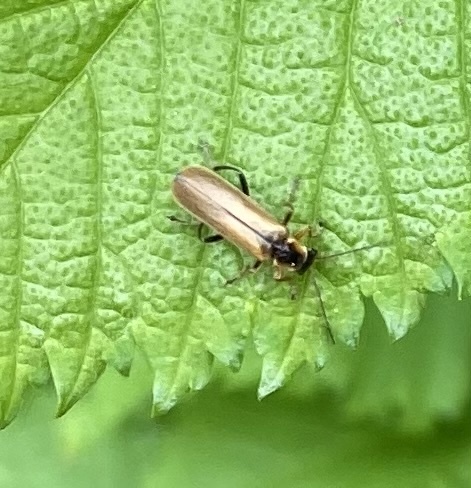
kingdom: Animalia
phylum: Arthropoda
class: Insecta
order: Coleoptera
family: Cantharidae
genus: Cantharis
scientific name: Cantharis decipiens
